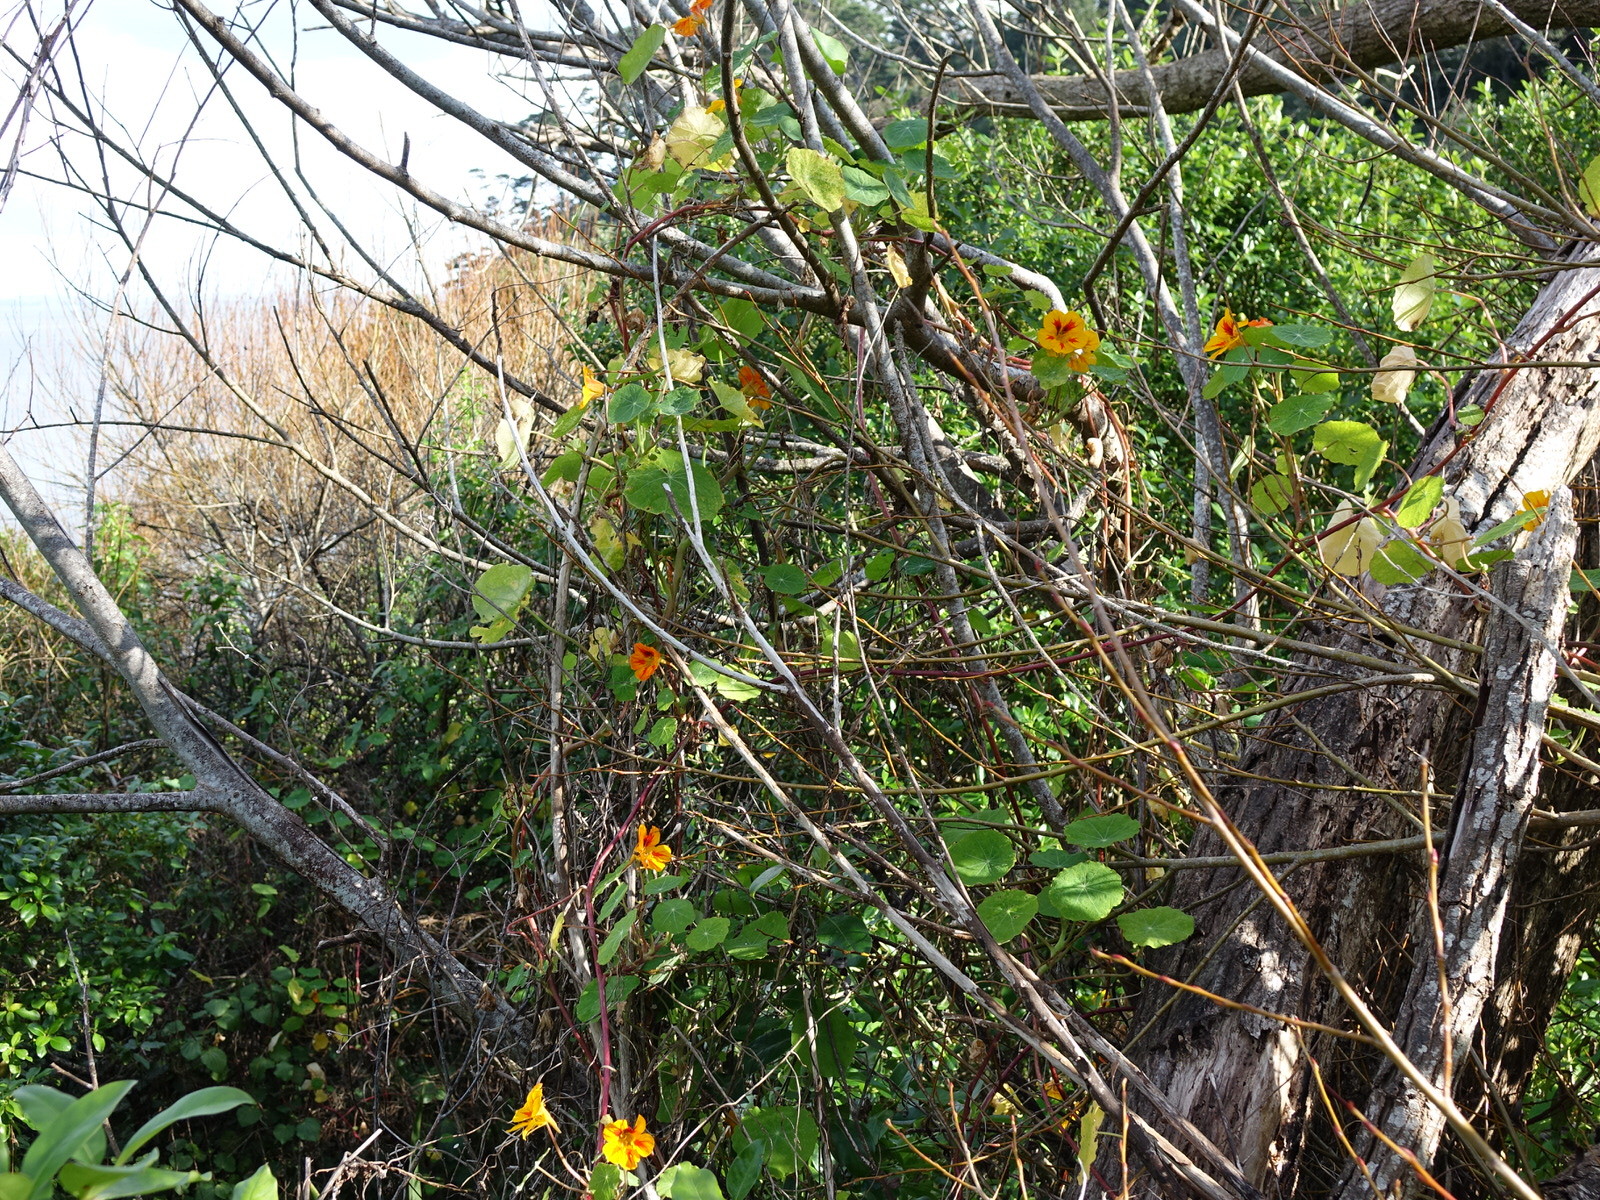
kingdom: Plantae
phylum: Tracheophyta
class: Magnoliopsida
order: Brassicales
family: Tropaeolaceae
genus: Tropaeolum
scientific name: Tropaeolum majus
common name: Nasturtium
